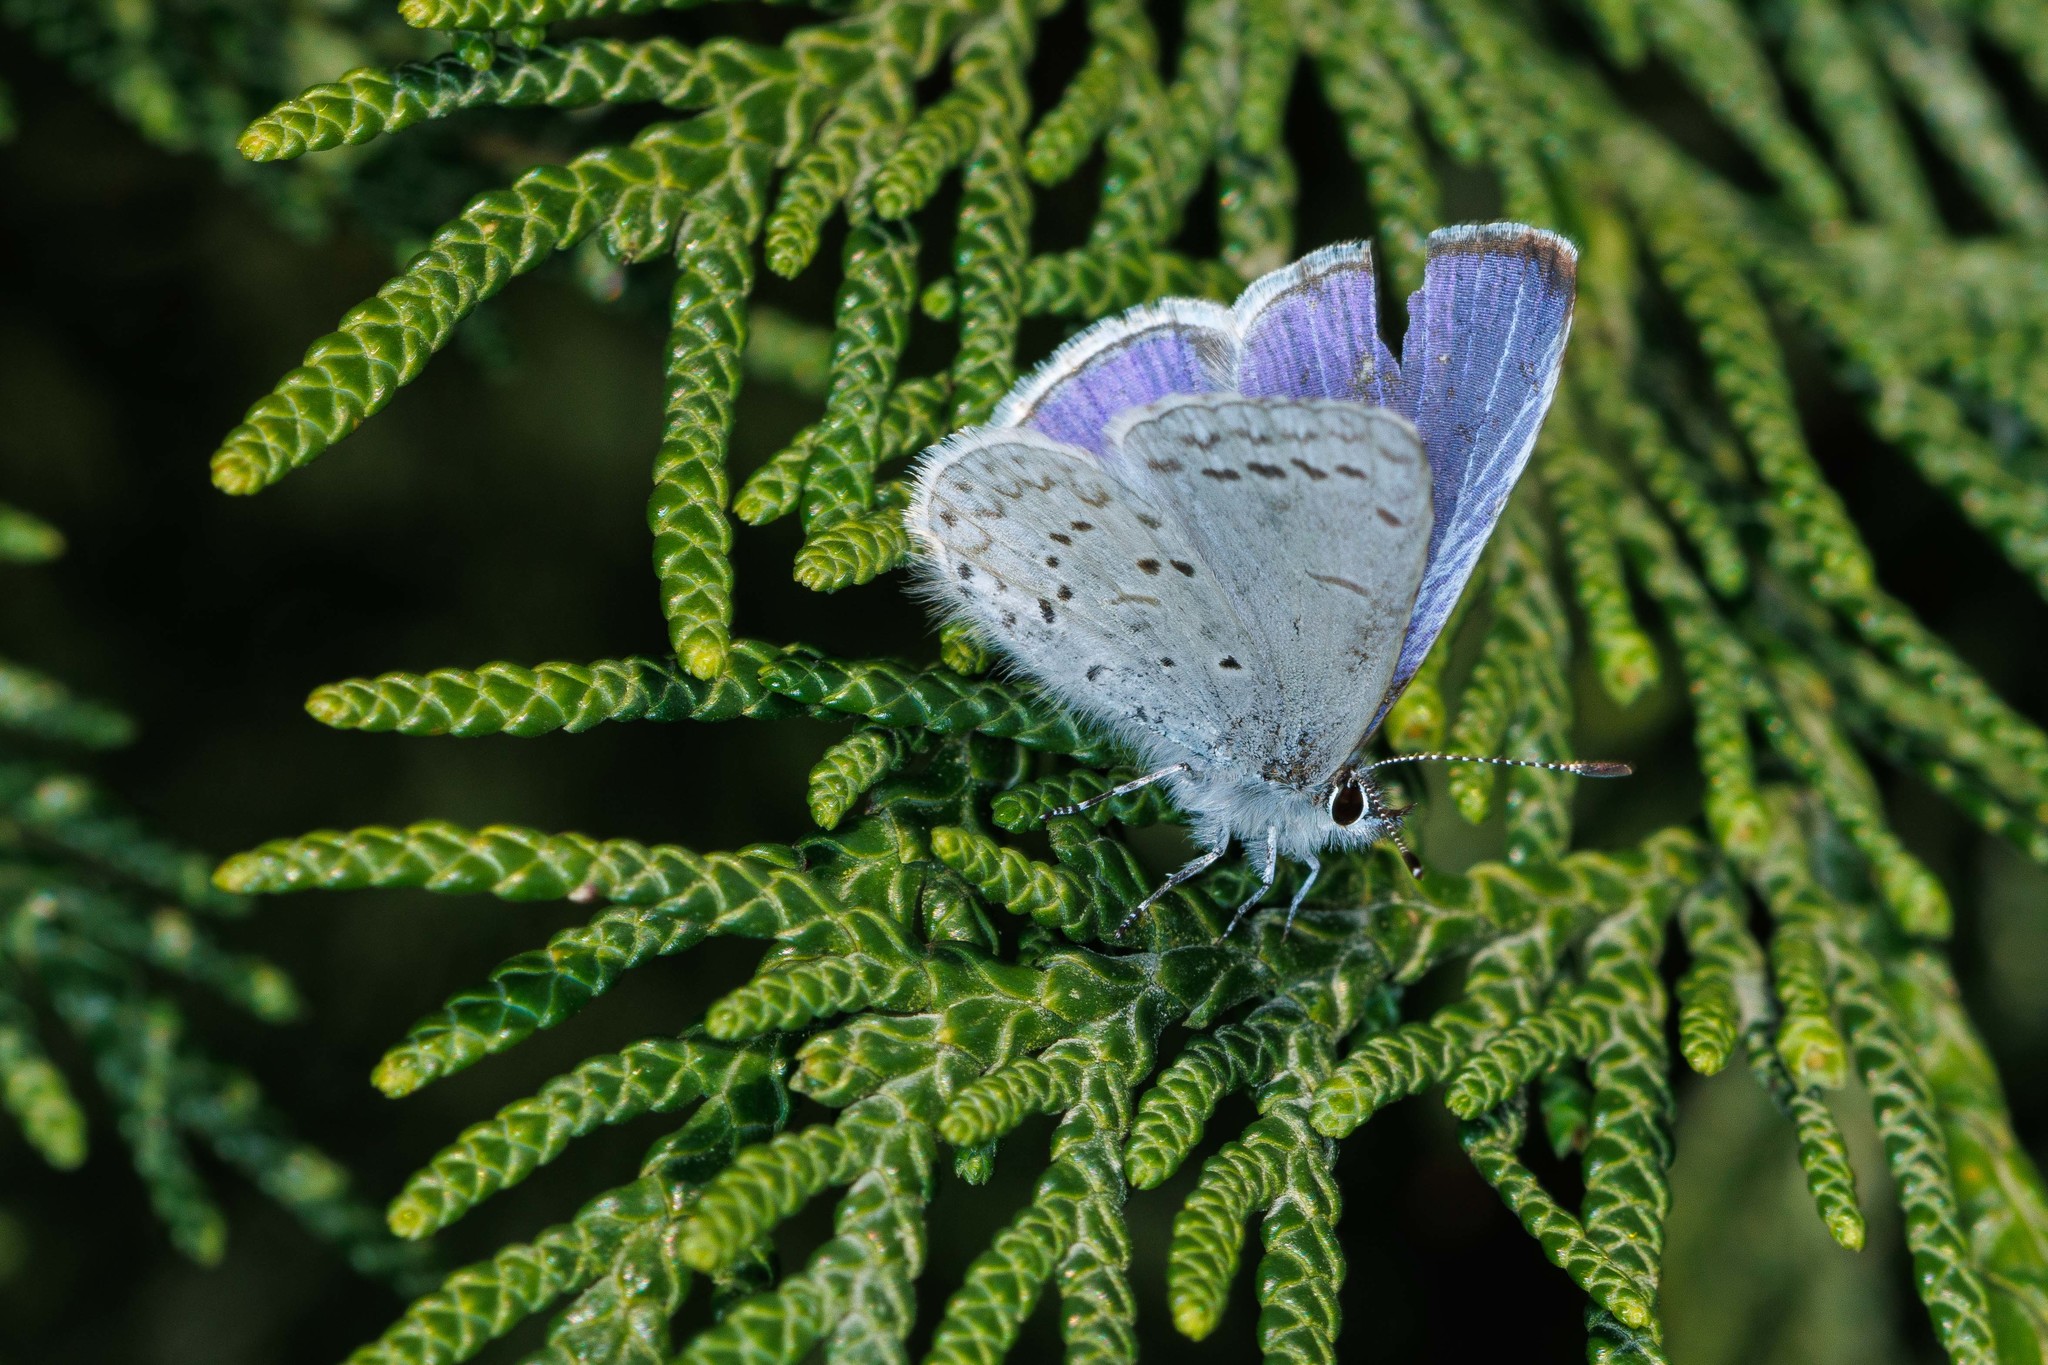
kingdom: Animalia
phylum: Arthropoda
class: Insecta
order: Lepidoptera
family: Lycaenidae
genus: Celastrina
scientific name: Celastrina ladon
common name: Spring azure
